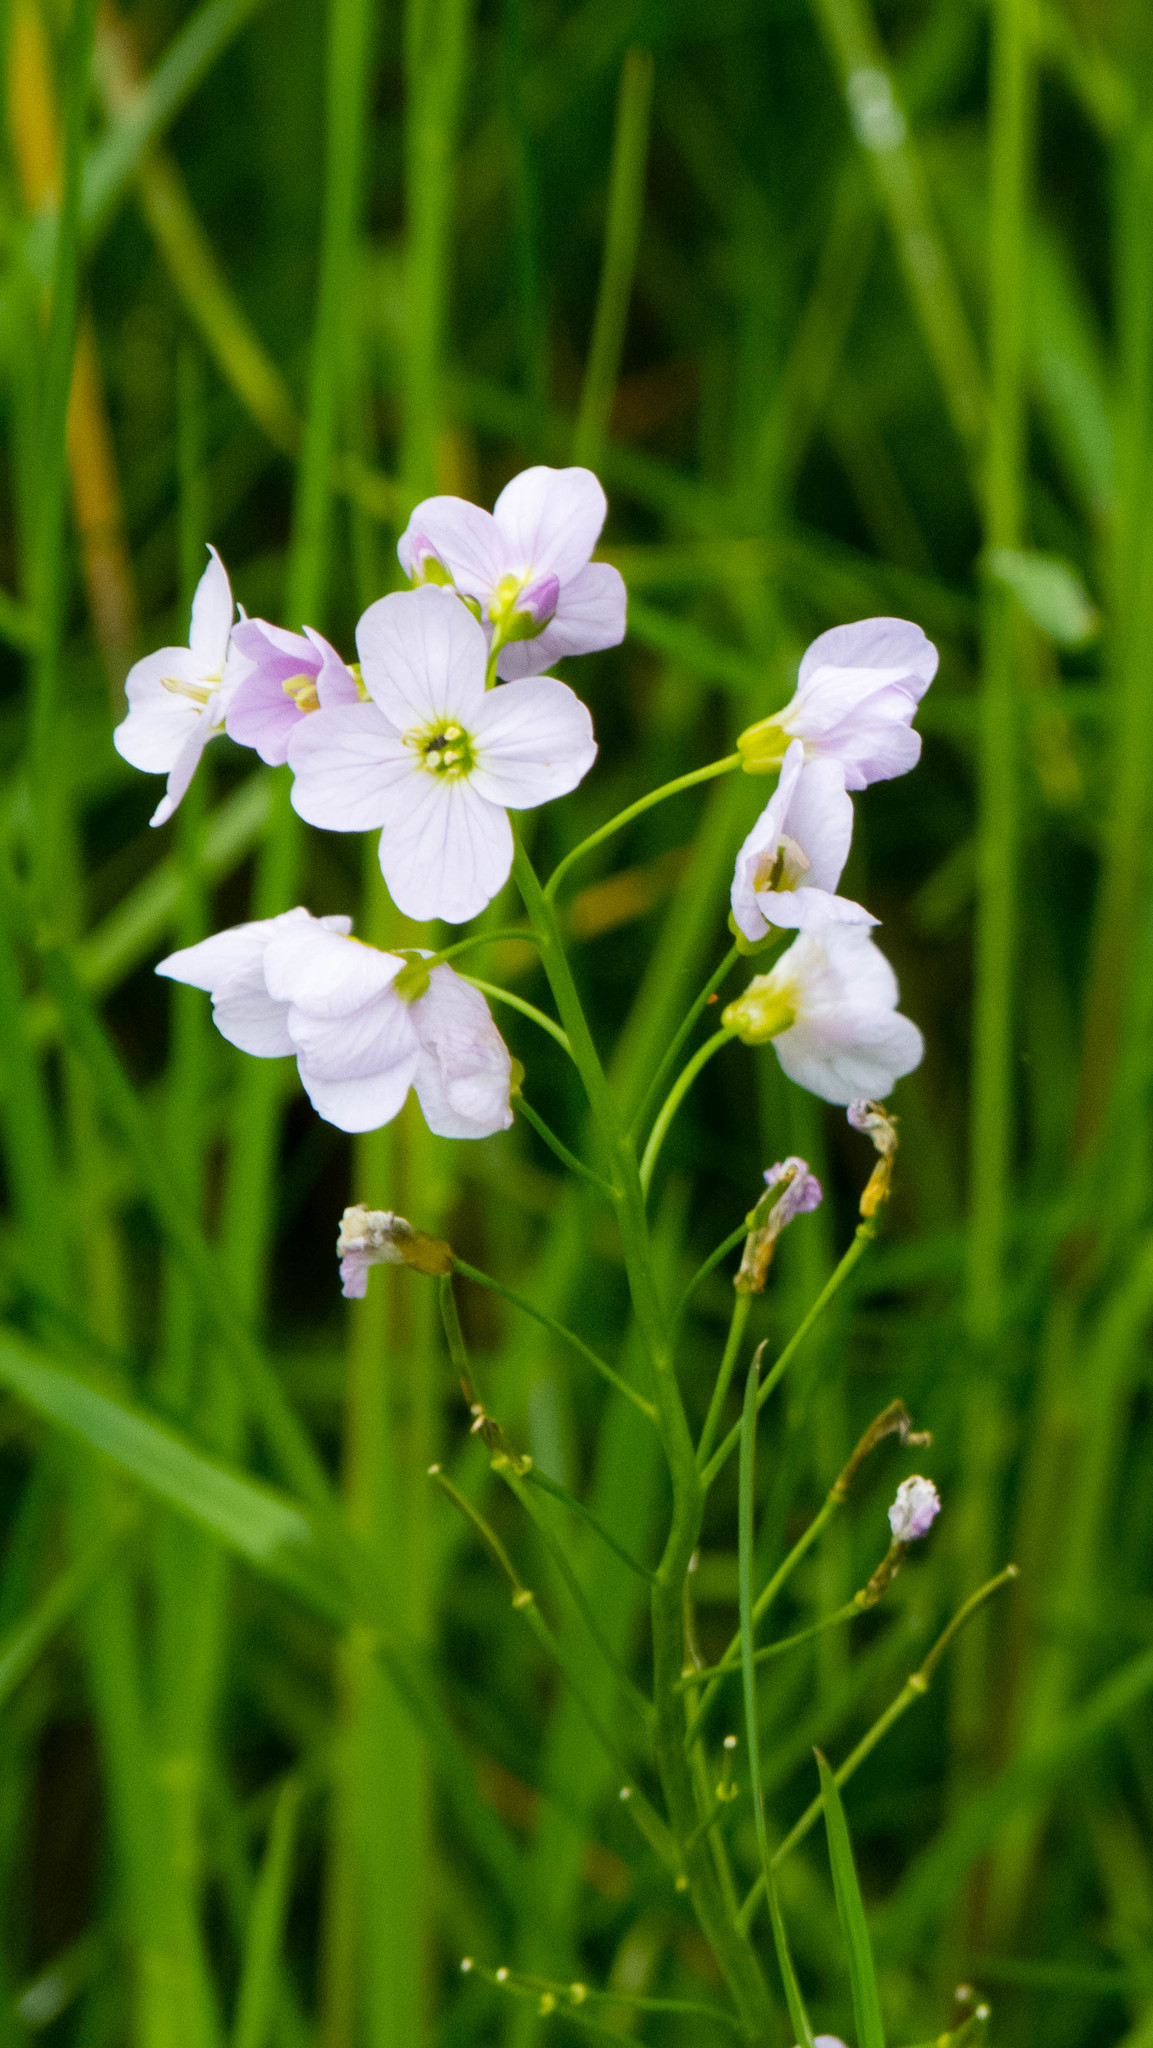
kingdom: Plantae
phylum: Tracheophyta
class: Magnoliopsida
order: Brassicales
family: Brassicaceae
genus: Cardamine
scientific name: Cardamine pratensis
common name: Cuckoo flower
